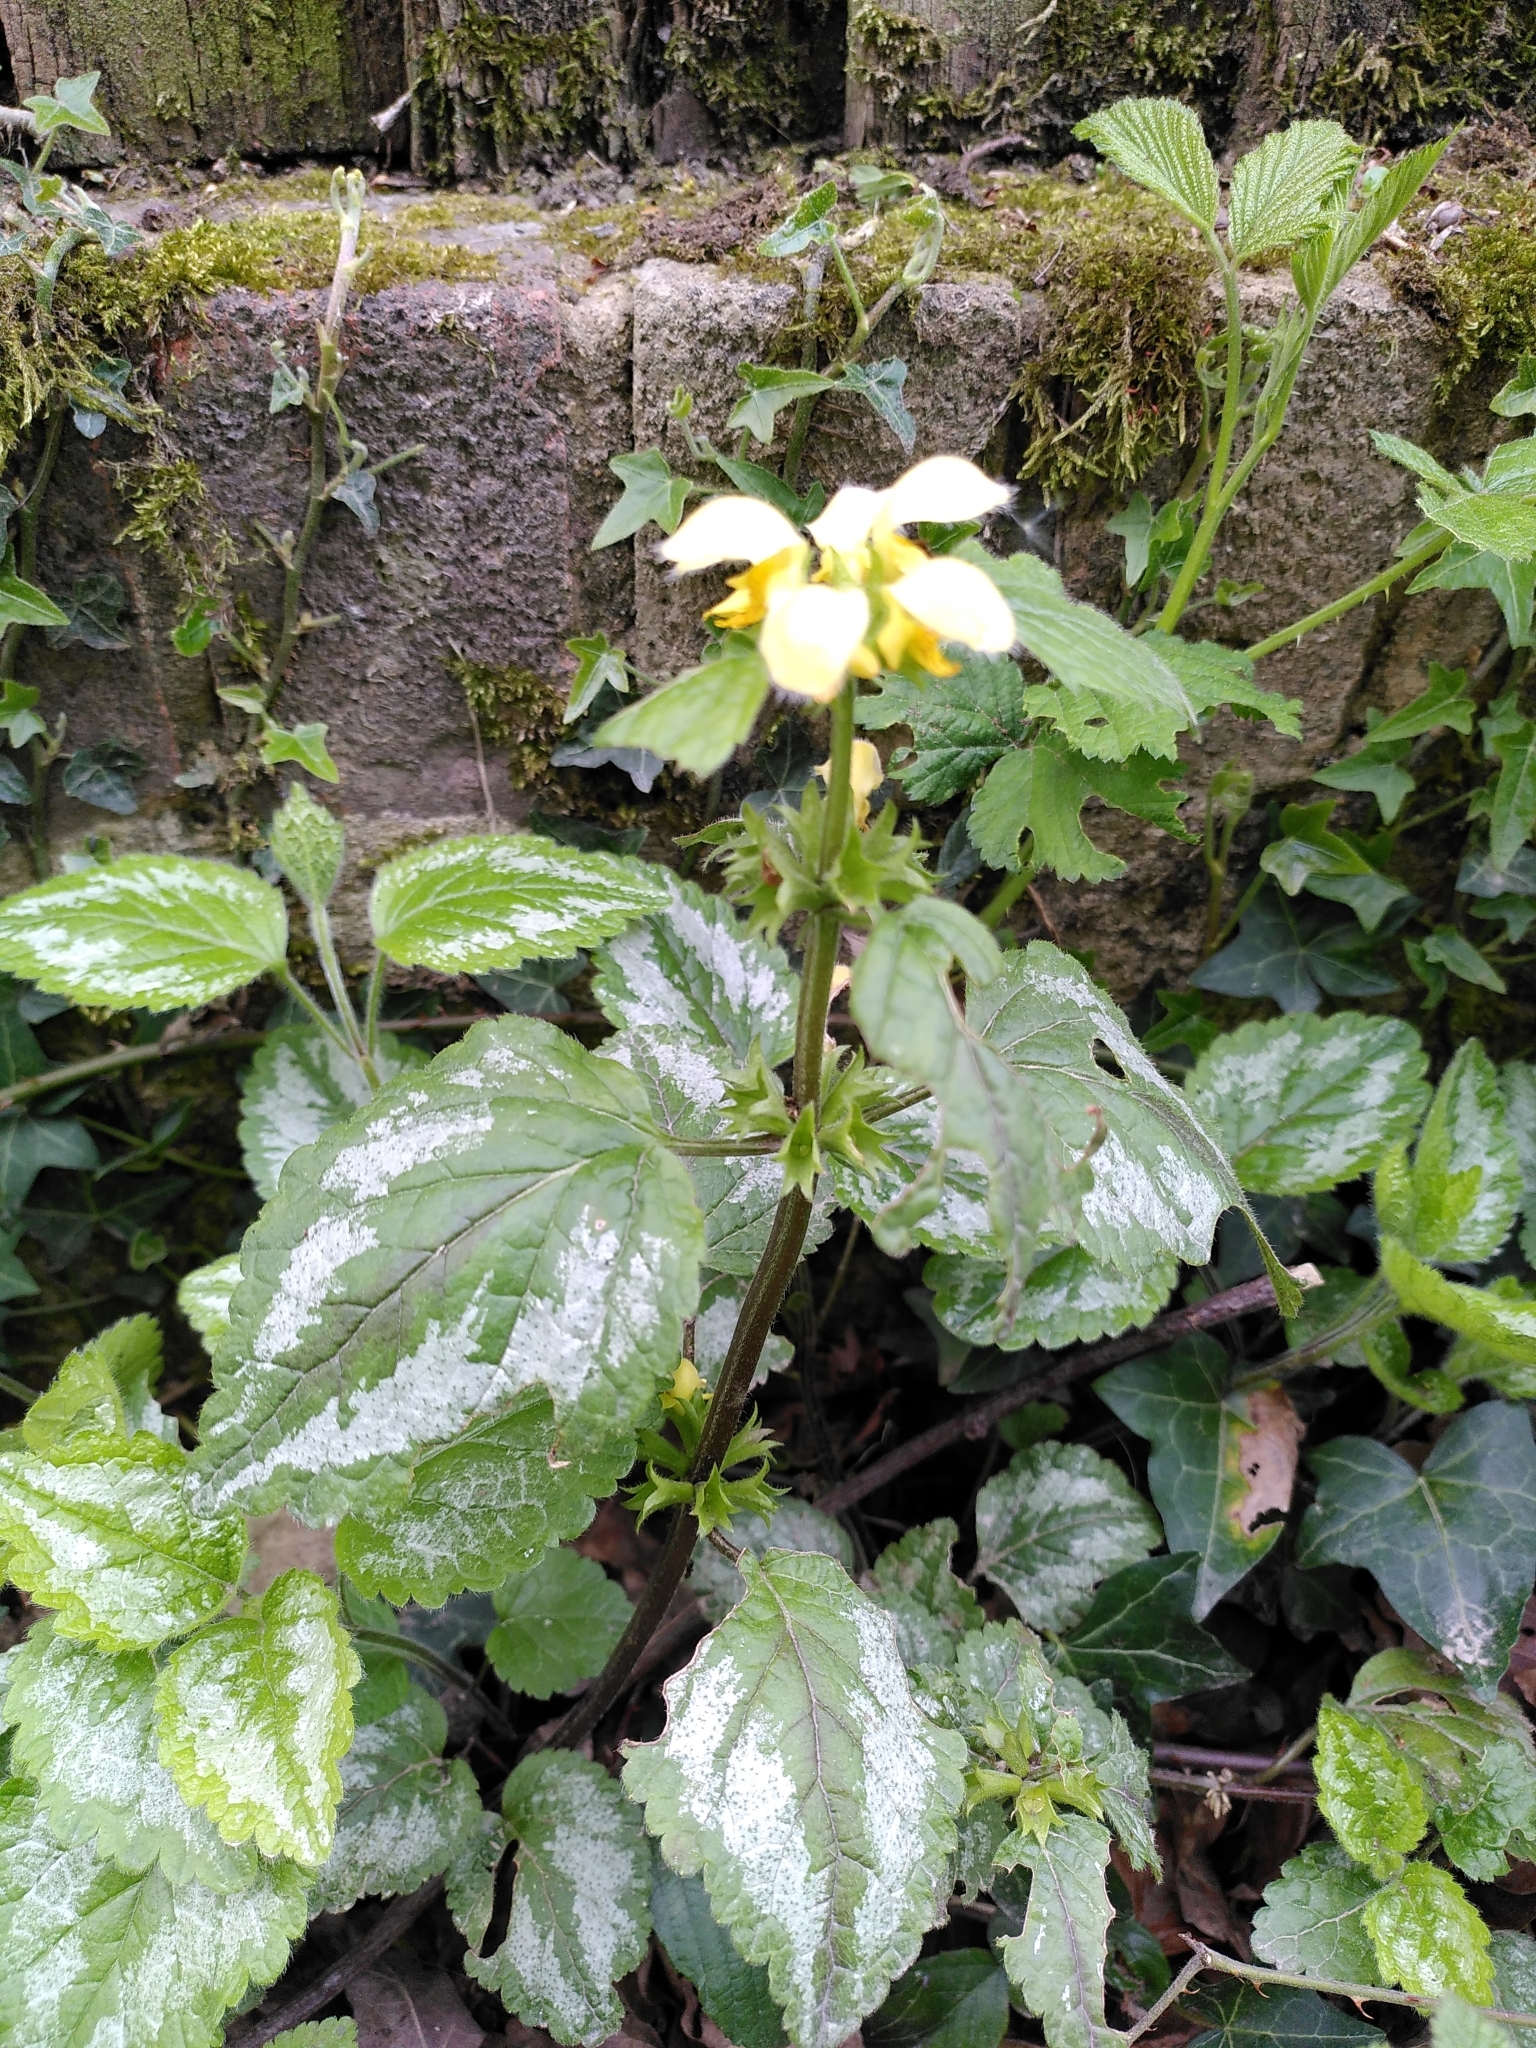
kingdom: Plantae
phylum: Tracheophyta
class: Magnoliopsida
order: Lamiales
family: Lamiaceae
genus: Lamium
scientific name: Lamium galeobdolon
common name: Yellow archangel
